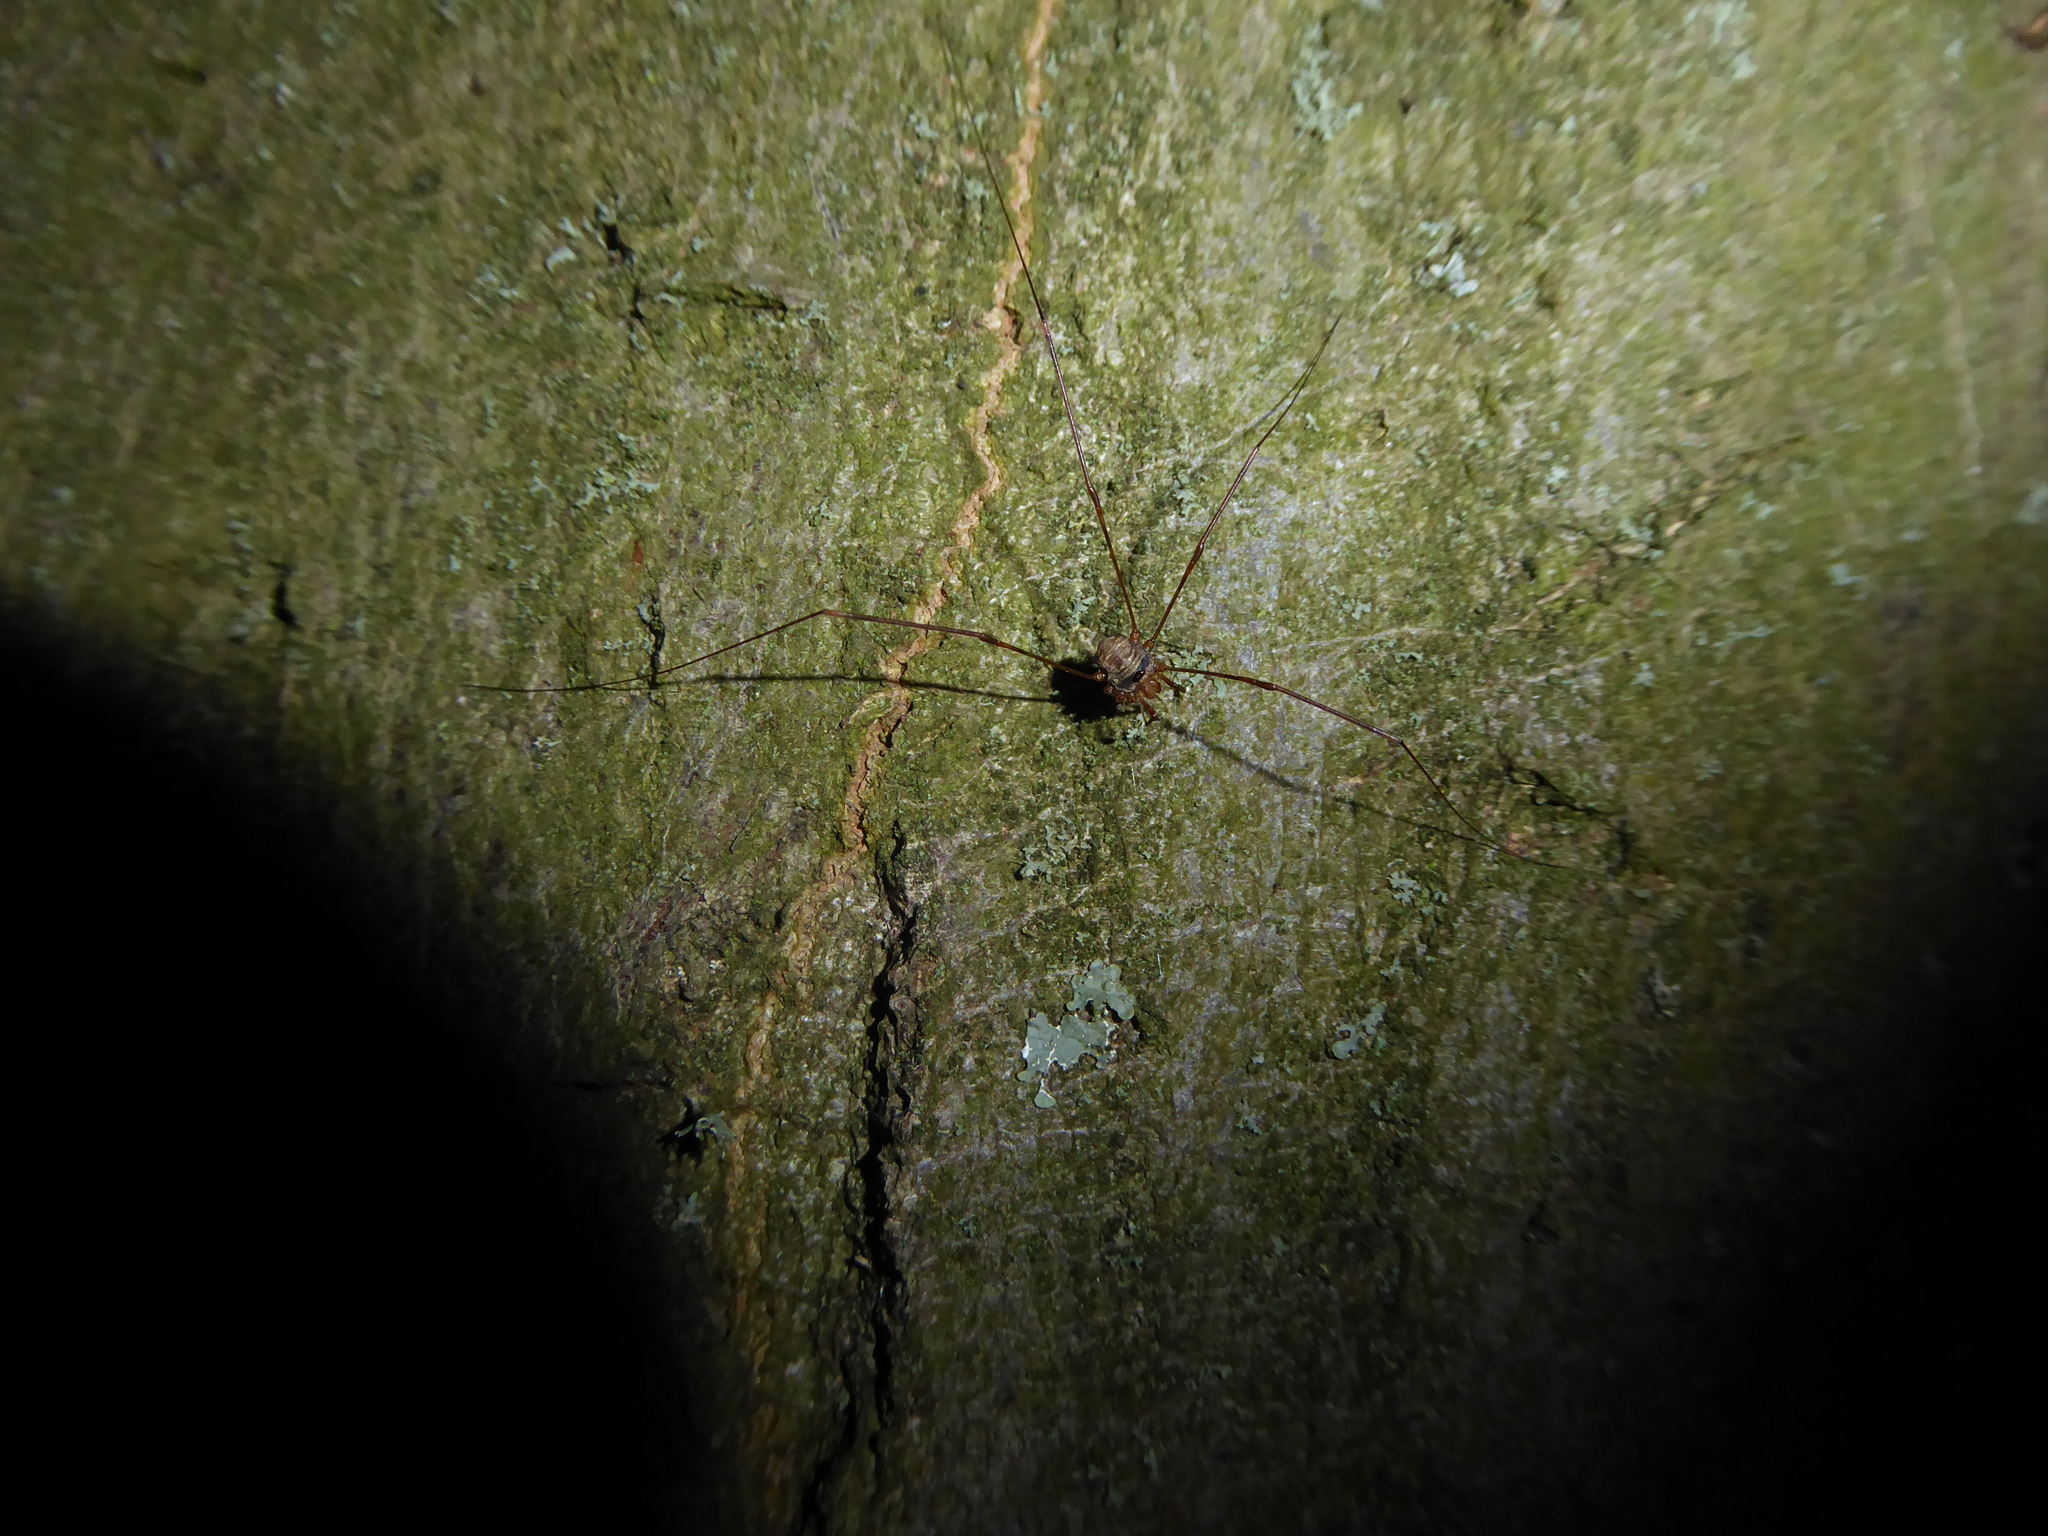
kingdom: Animalia
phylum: Arthropoda
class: Arachnida
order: Opiliones
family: Phalangiidae
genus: Dicranopalpus
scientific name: Dicranopalpus
